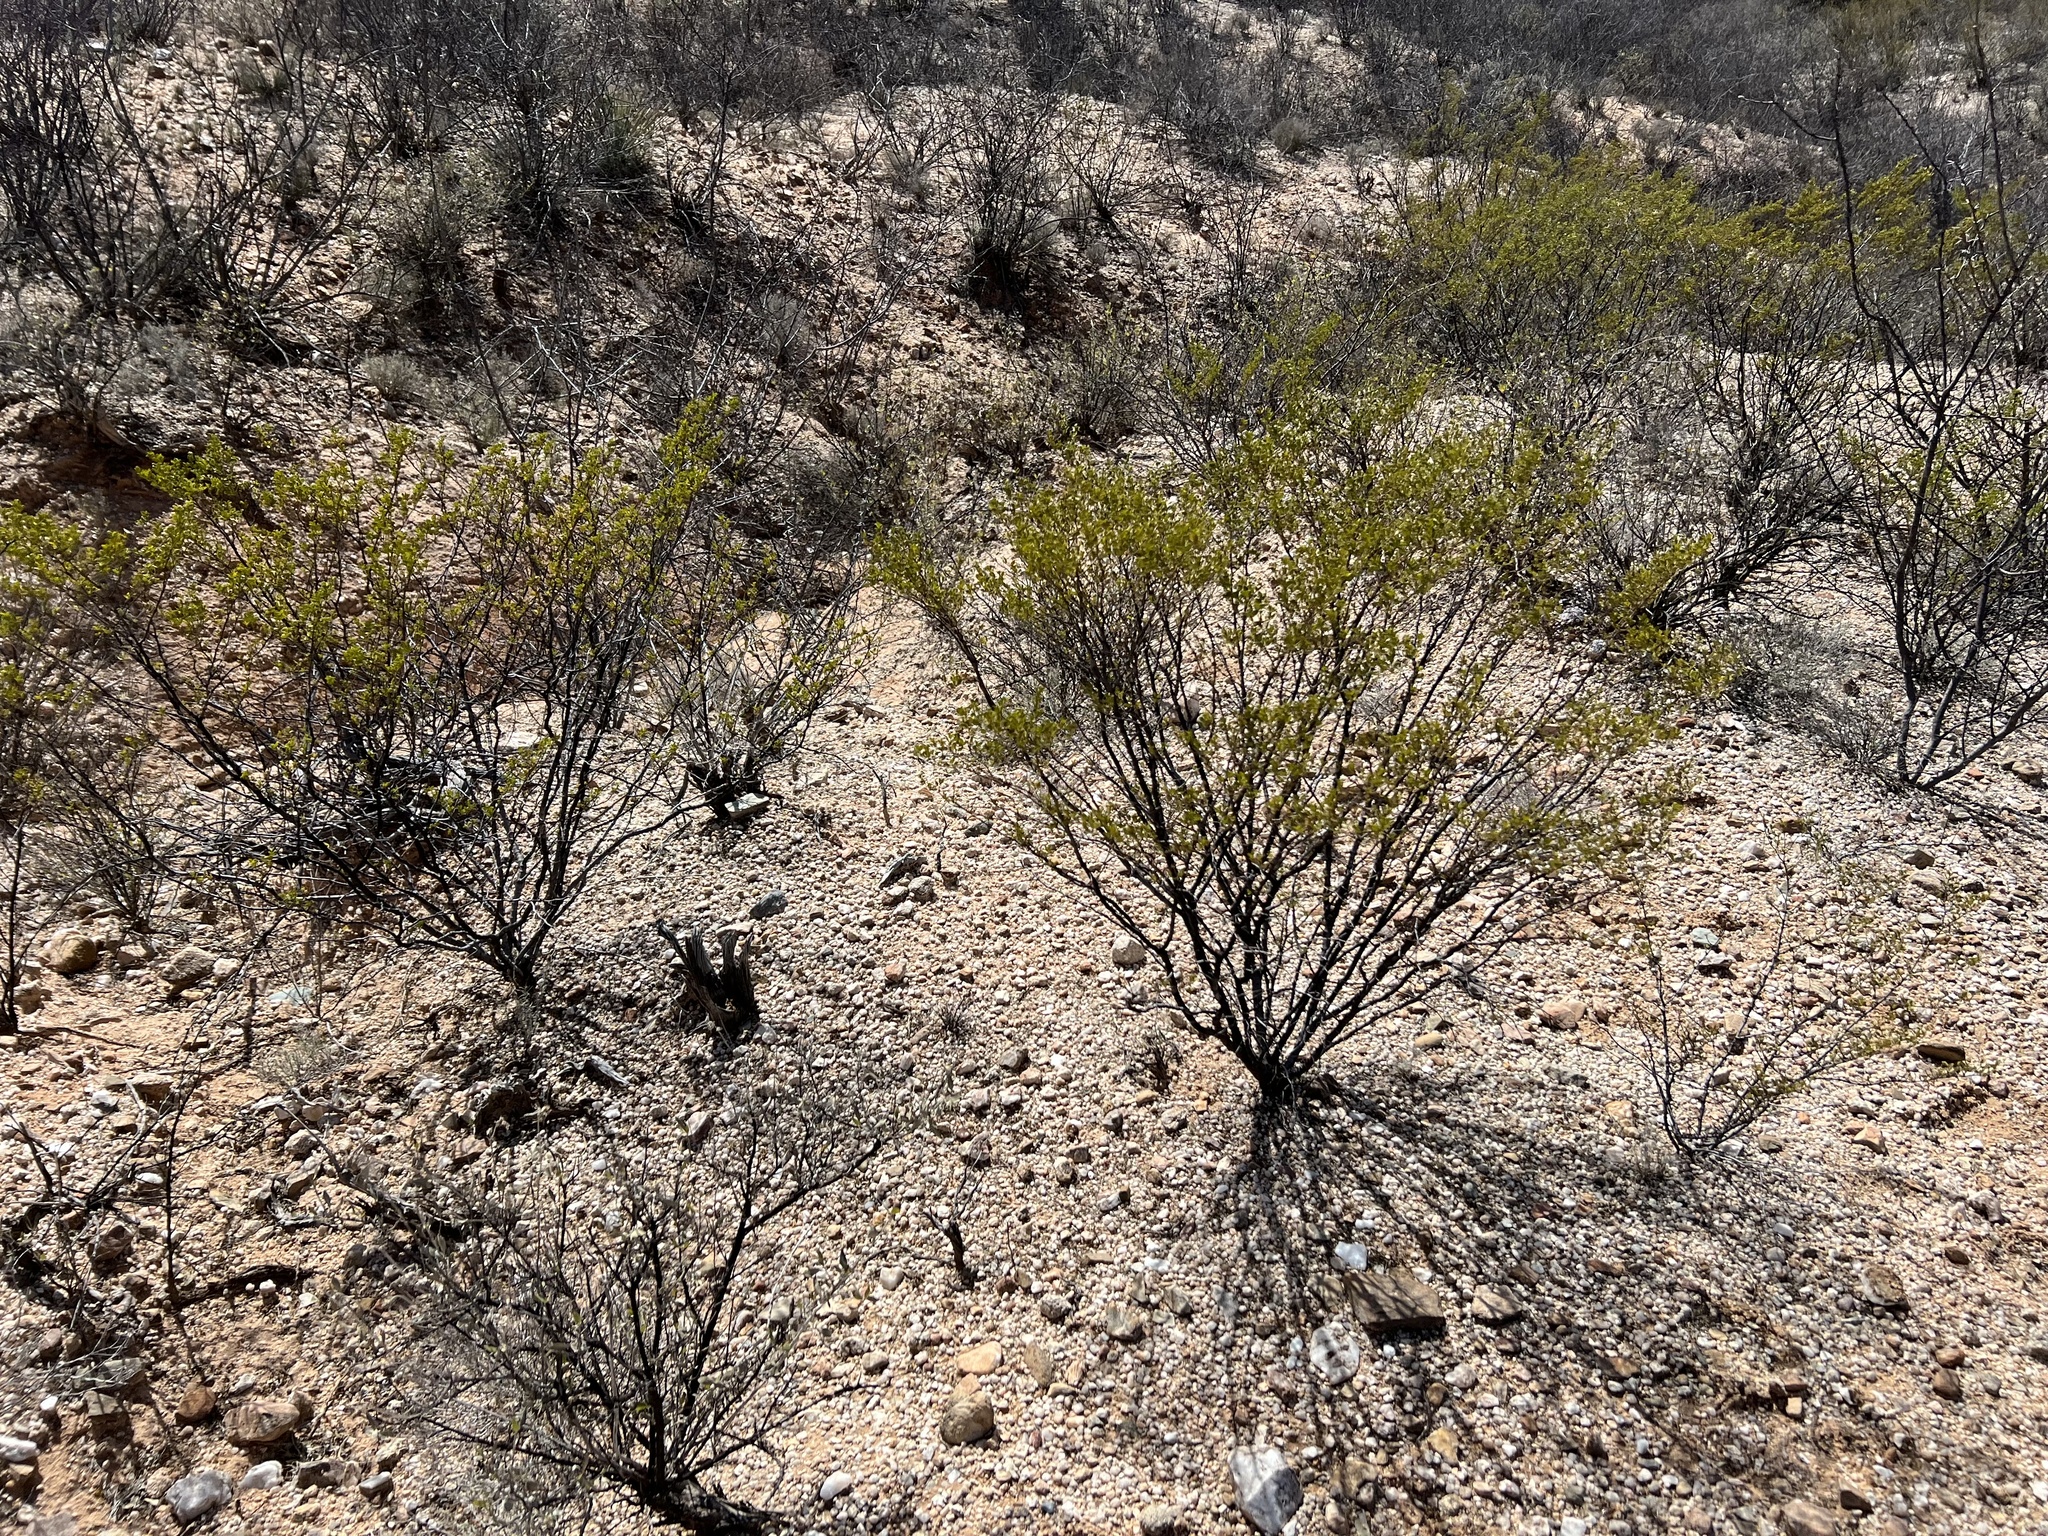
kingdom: Plantae
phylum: Tracheophyta
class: Magnoliopsida
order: Zygophyllales
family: Zygophyllaceae
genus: Larrea
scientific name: Larrea tridentata
